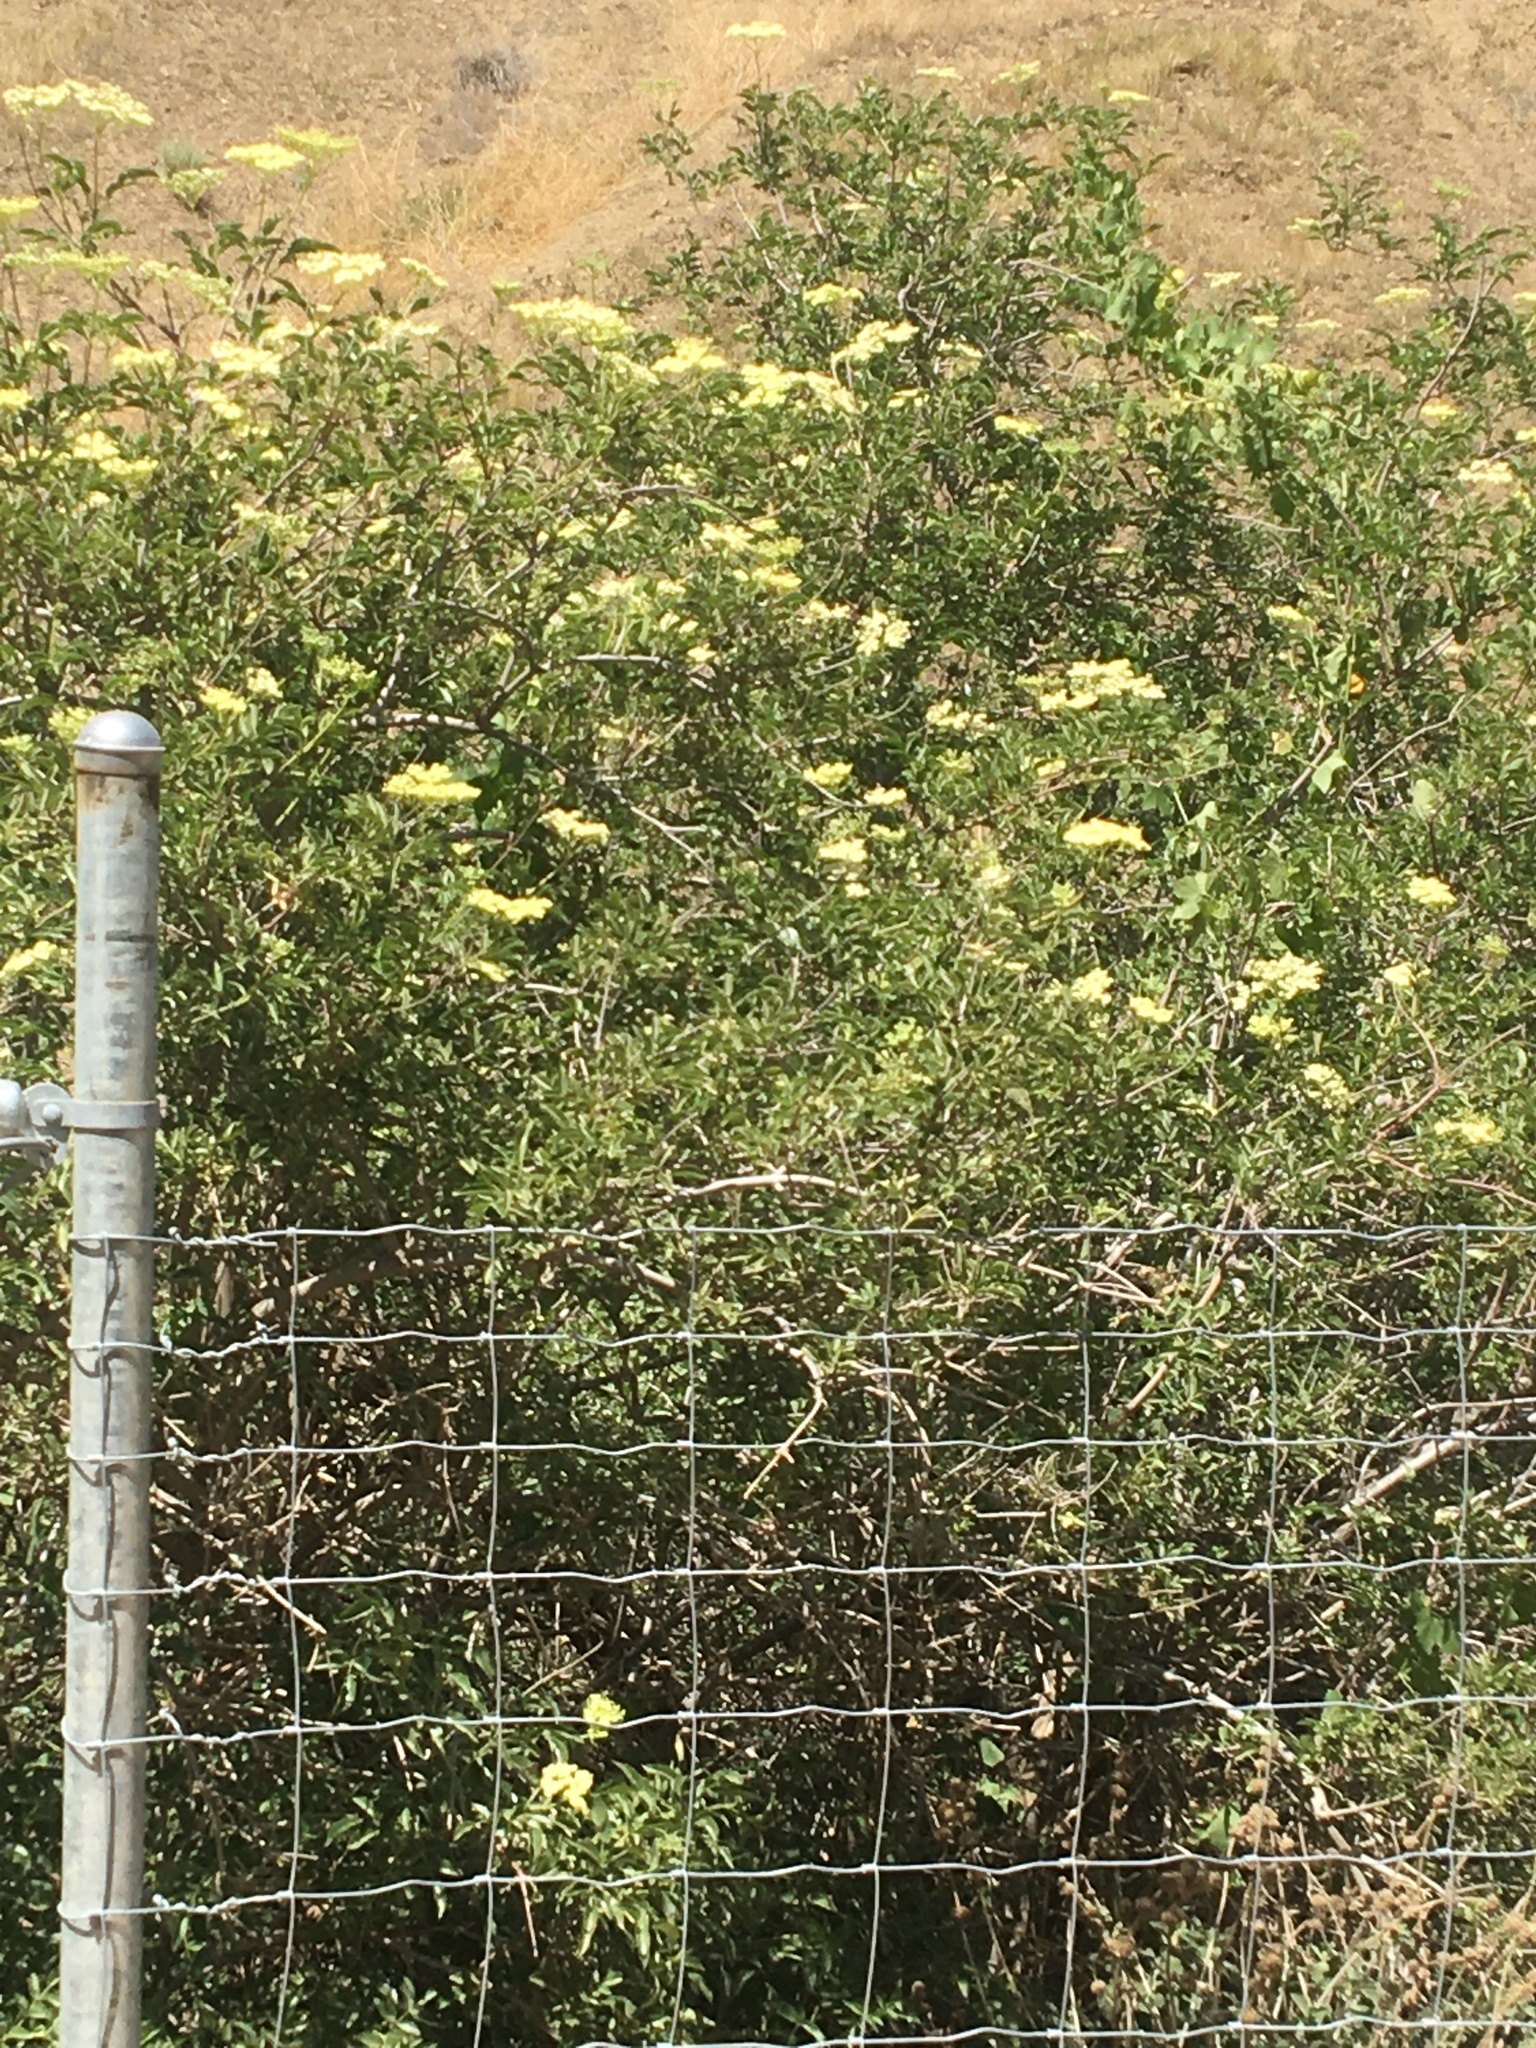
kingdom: Plantae
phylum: Tracheophyta
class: Magnoliopsida
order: Dipsacales
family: Viburnaceae
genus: Sambucus
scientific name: Sambucus cerulea
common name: Blue elder
